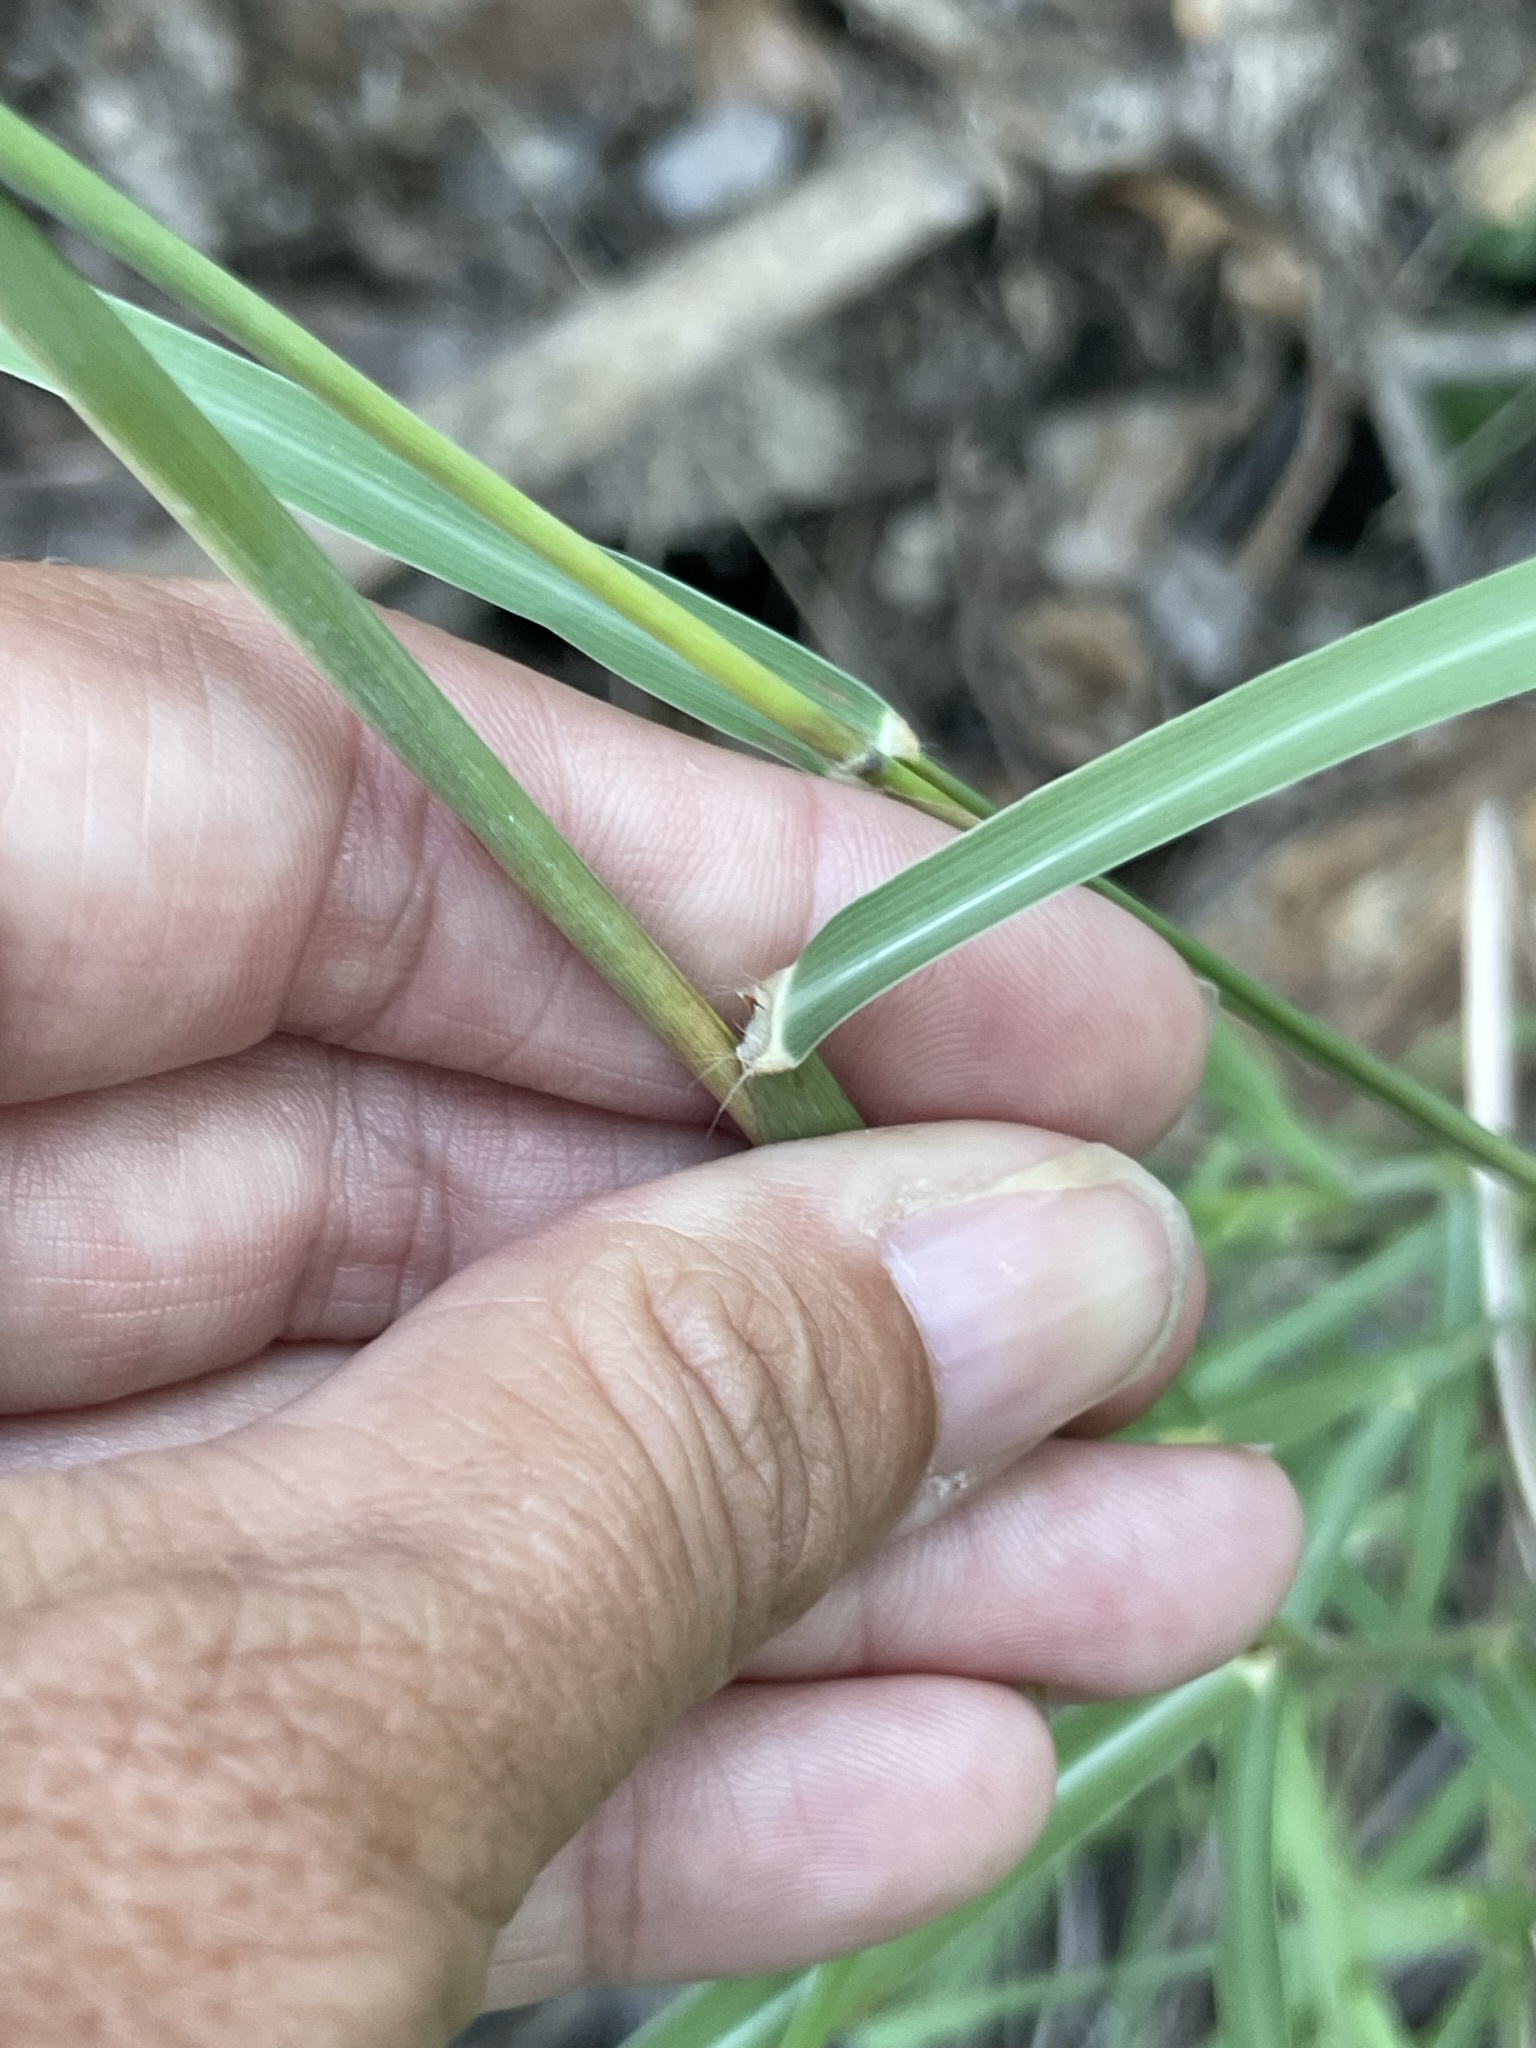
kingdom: Plantae
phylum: Tracheophyta
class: Liliopsida
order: Poales
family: Poaceae
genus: Melinis
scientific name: Melinis repens
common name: Rose natal grass
